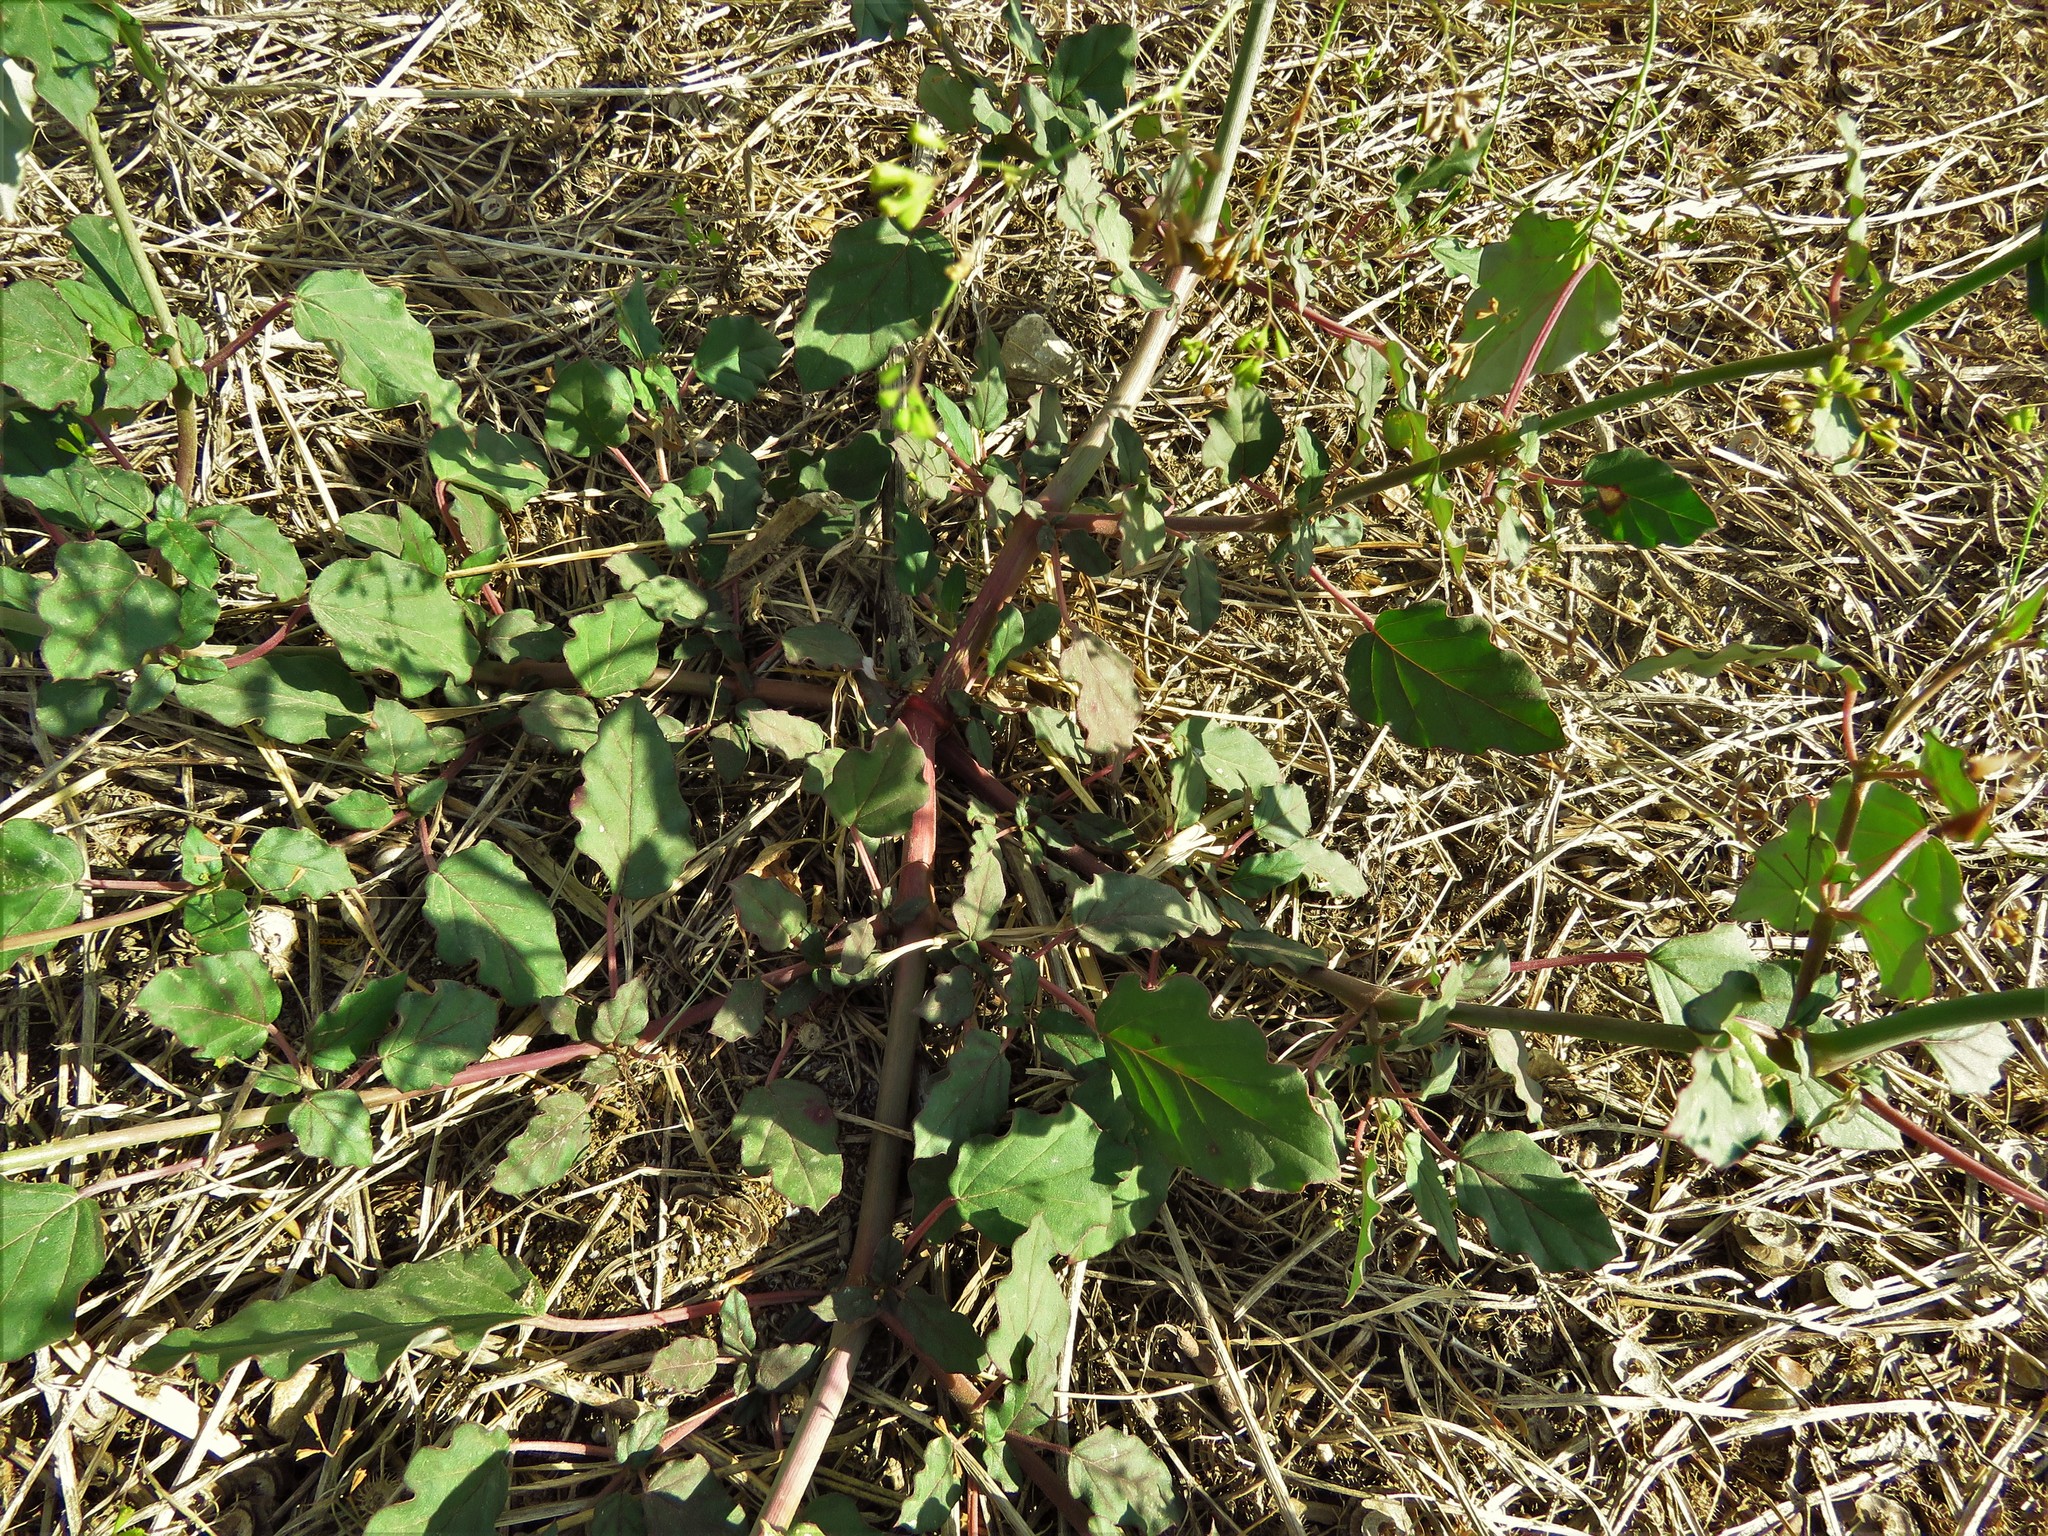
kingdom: Plantae
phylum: Tracheophyta
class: Magnoliopsida
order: Caryophyllales
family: Nyctaginaceae
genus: Boerhavia
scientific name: Boerhavia erecta
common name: Erect spiderling
